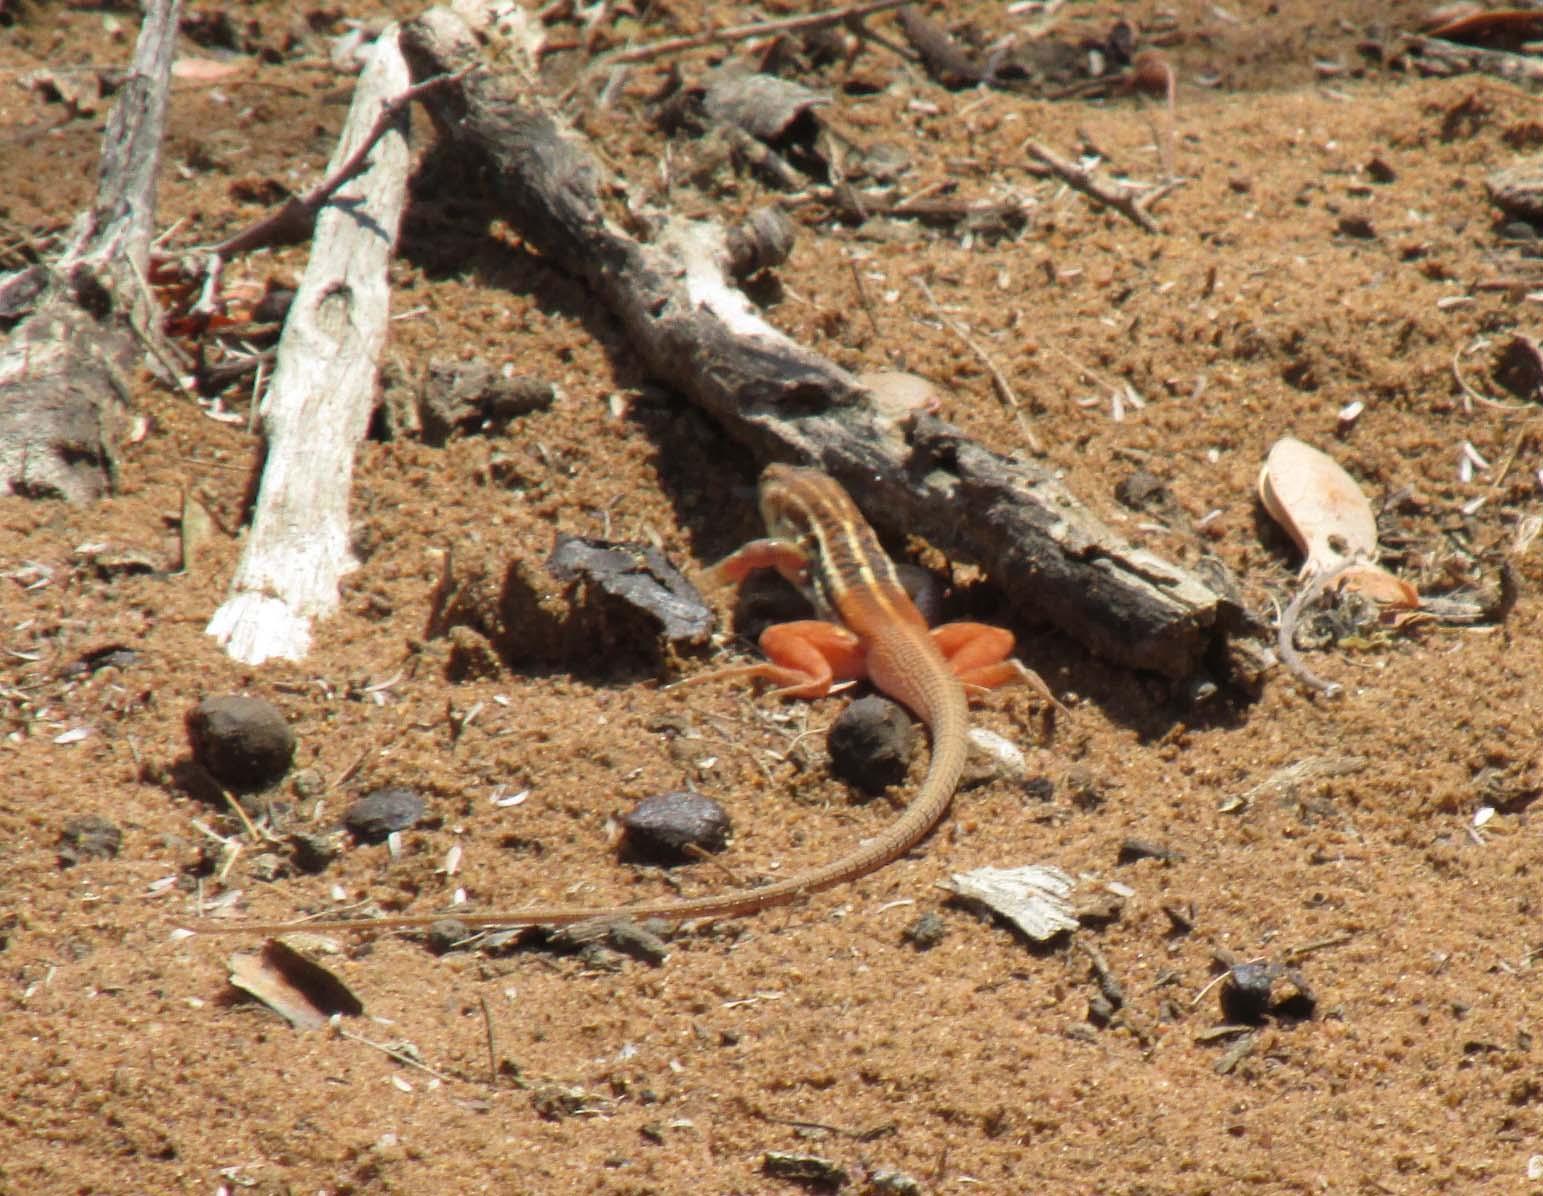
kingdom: Animalia
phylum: Chordata
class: Squamata
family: Lacertidae
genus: Heliobolus
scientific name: Heliobolus lugubris
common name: Bushveld lizard
